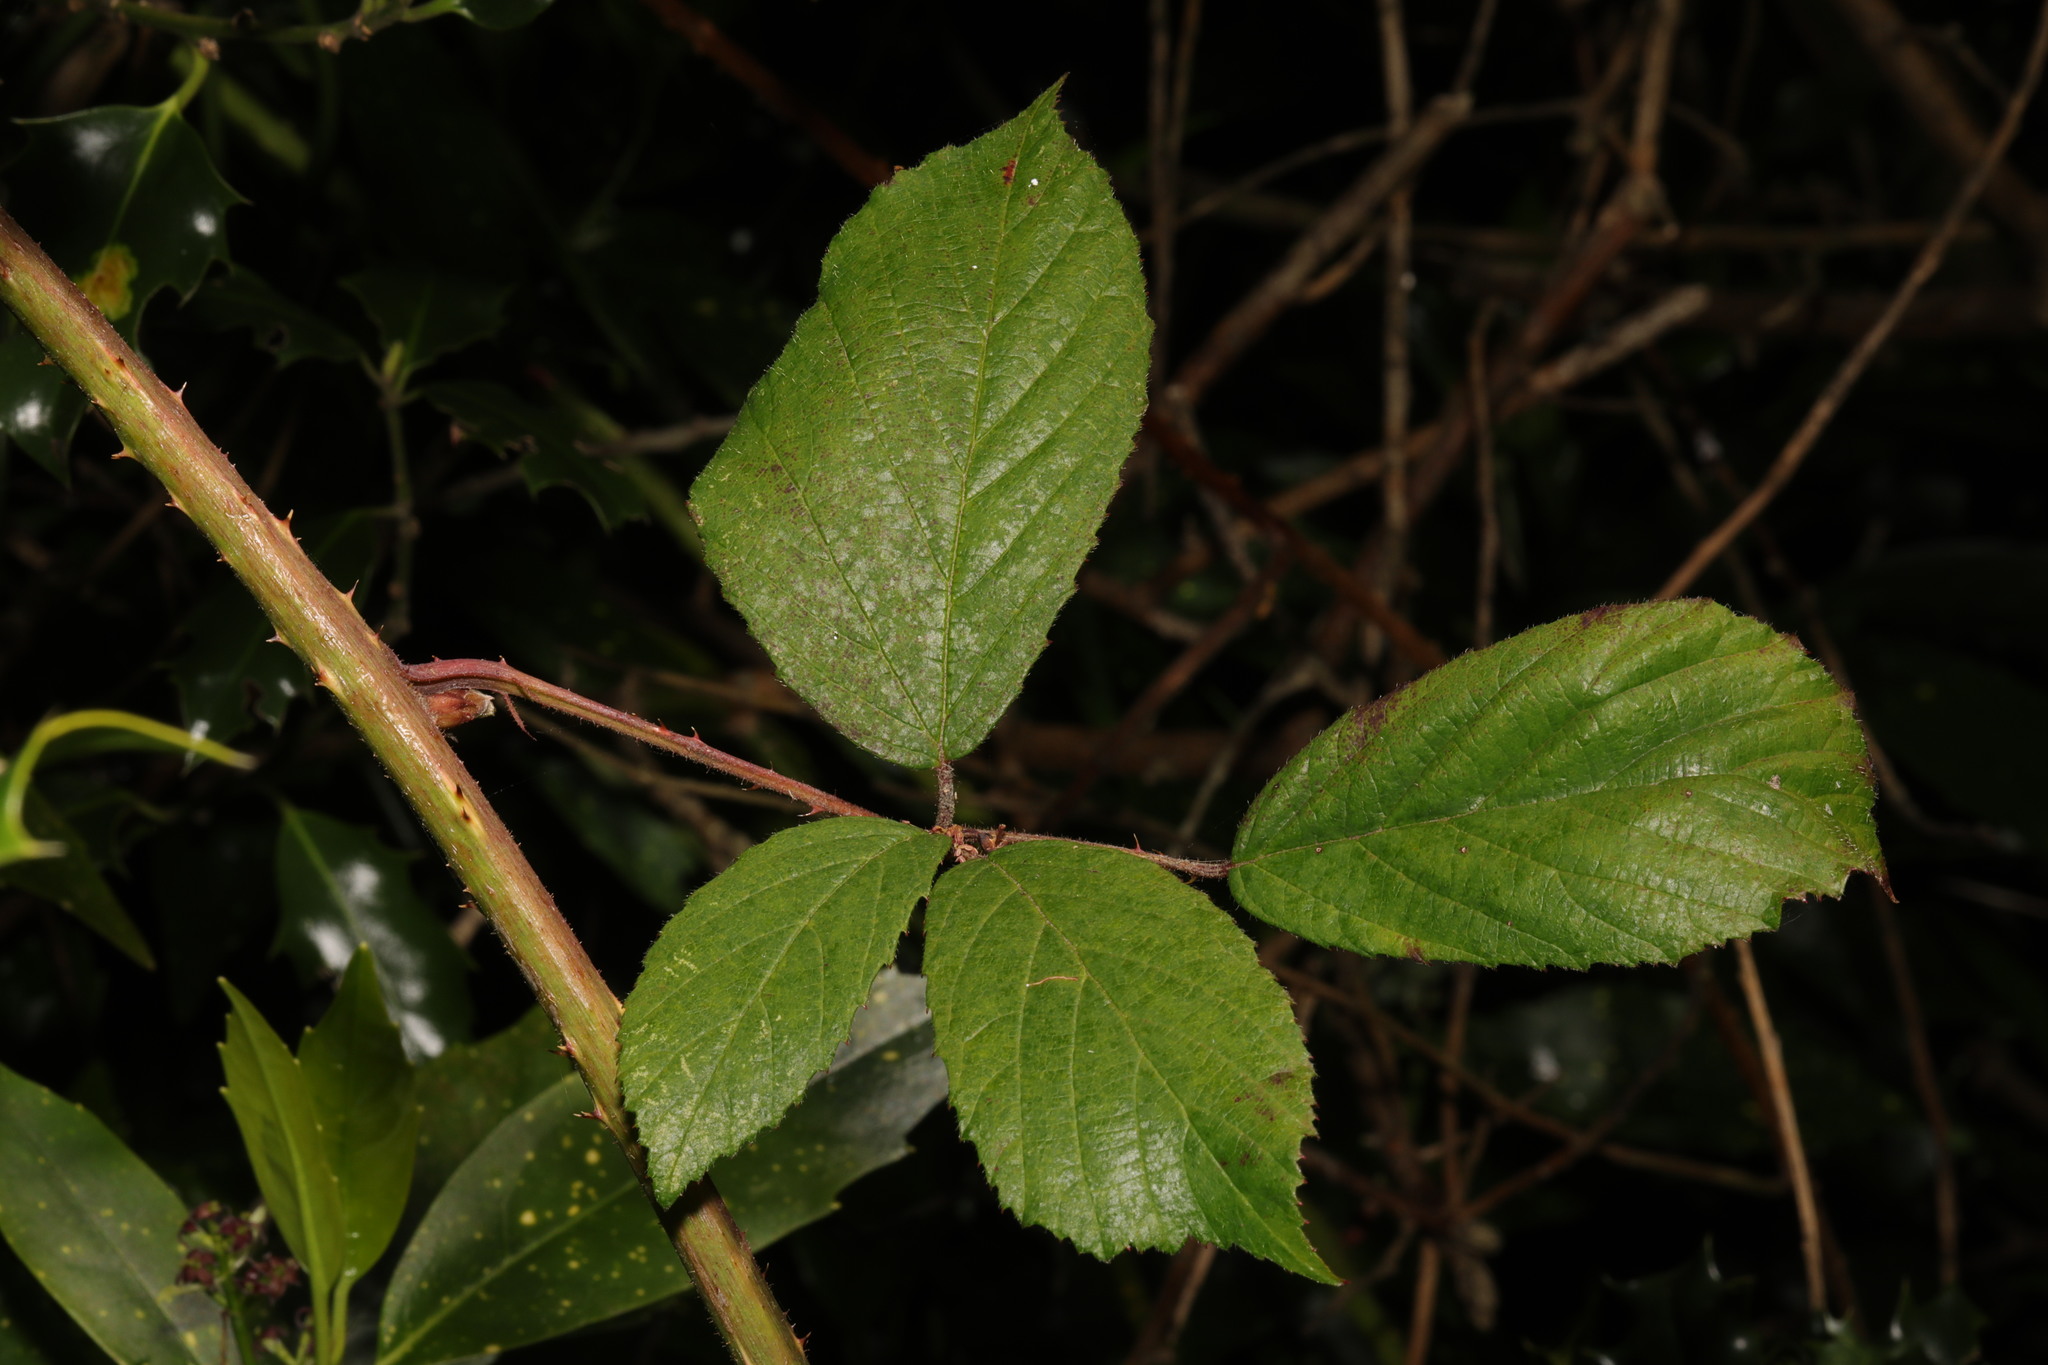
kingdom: Plantae
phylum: Tracheophyta
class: Magnoliopsida
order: Rosales
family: Rosaceae
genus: Rubus
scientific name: Rubus rufescens
